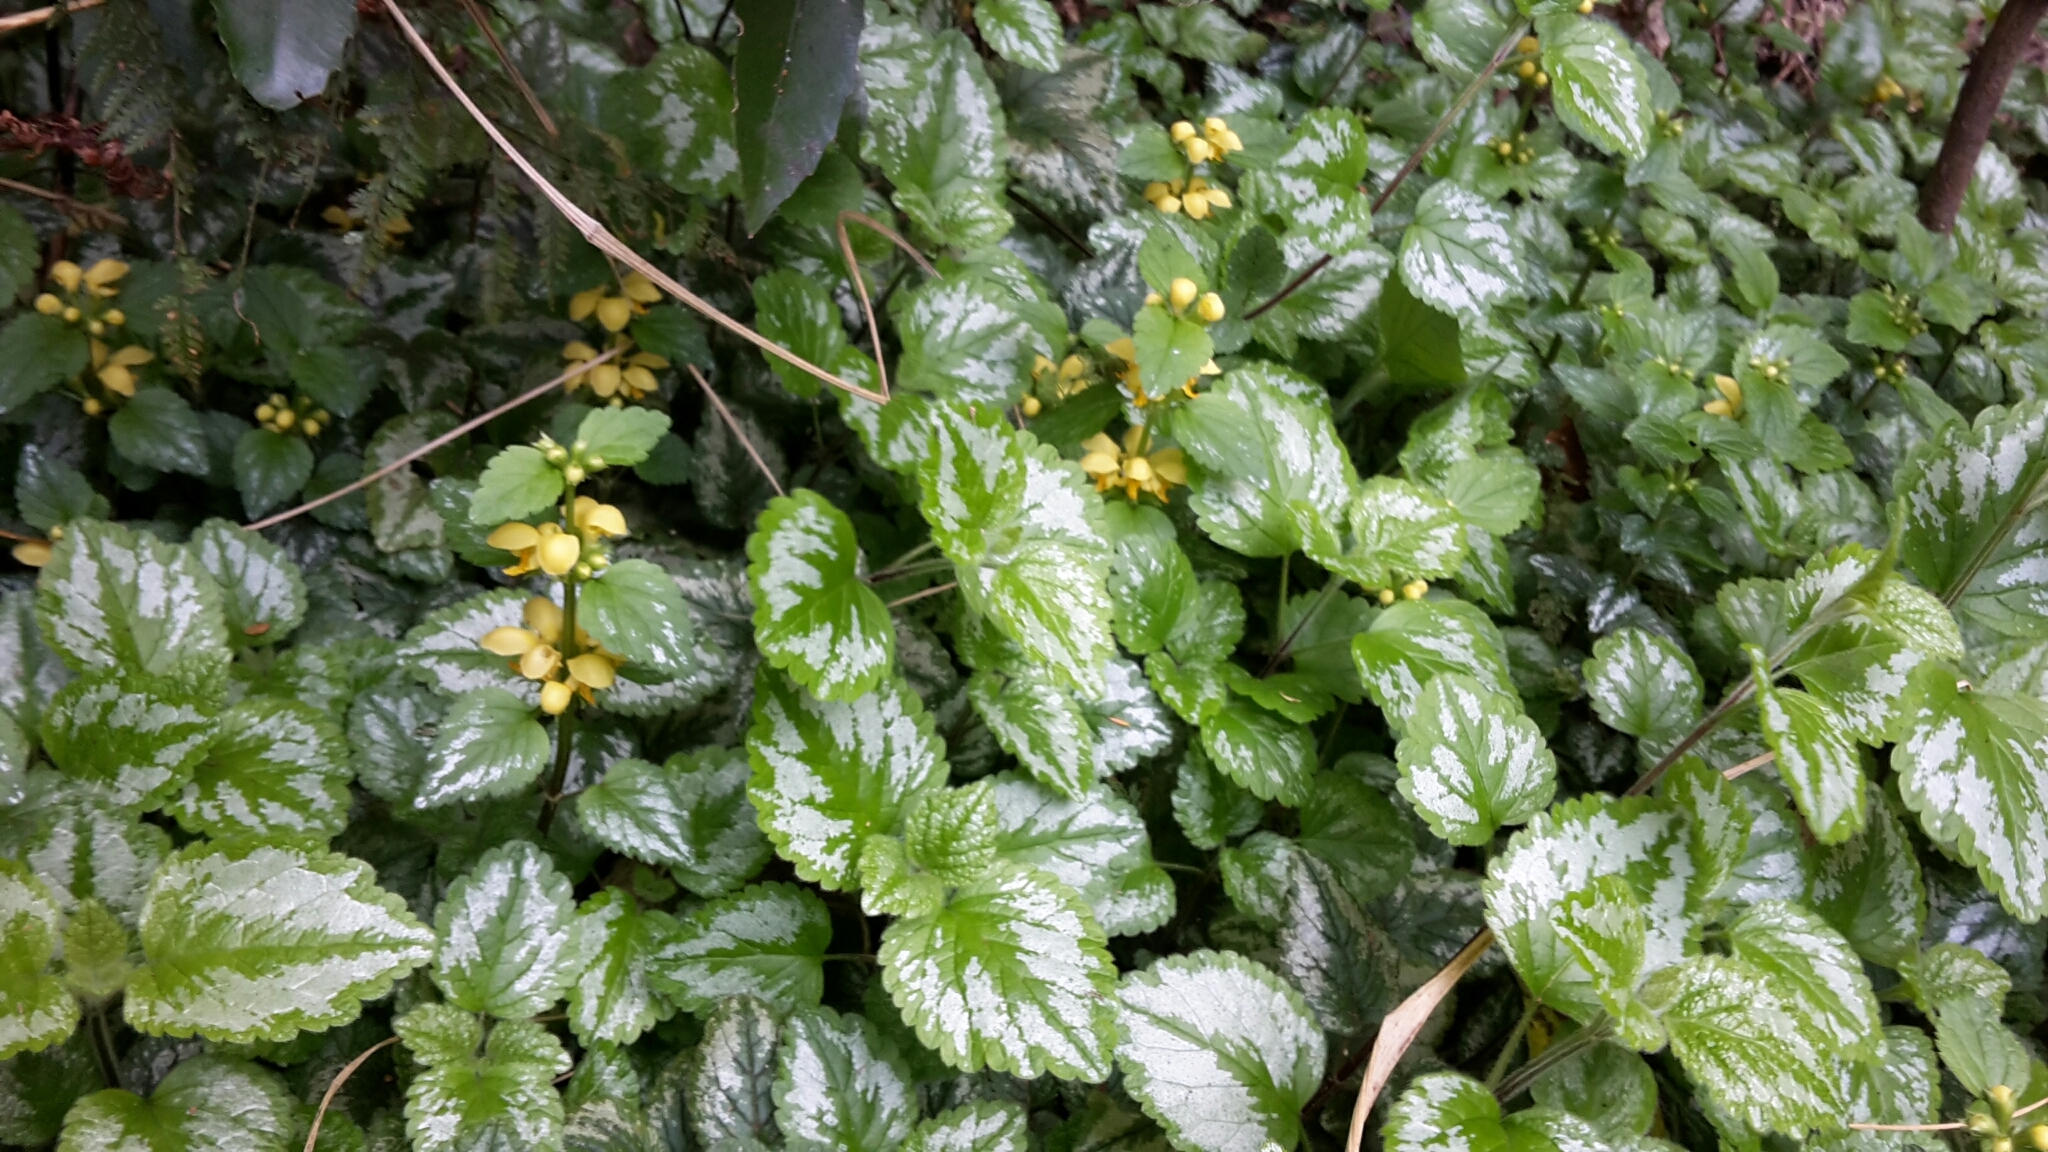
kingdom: Plantae
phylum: Tracheophyta
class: Magnoliopsida
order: Lamiales
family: Lamiaceae
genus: Lamium
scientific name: Lamium galeobdolon
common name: Yellow archangel
